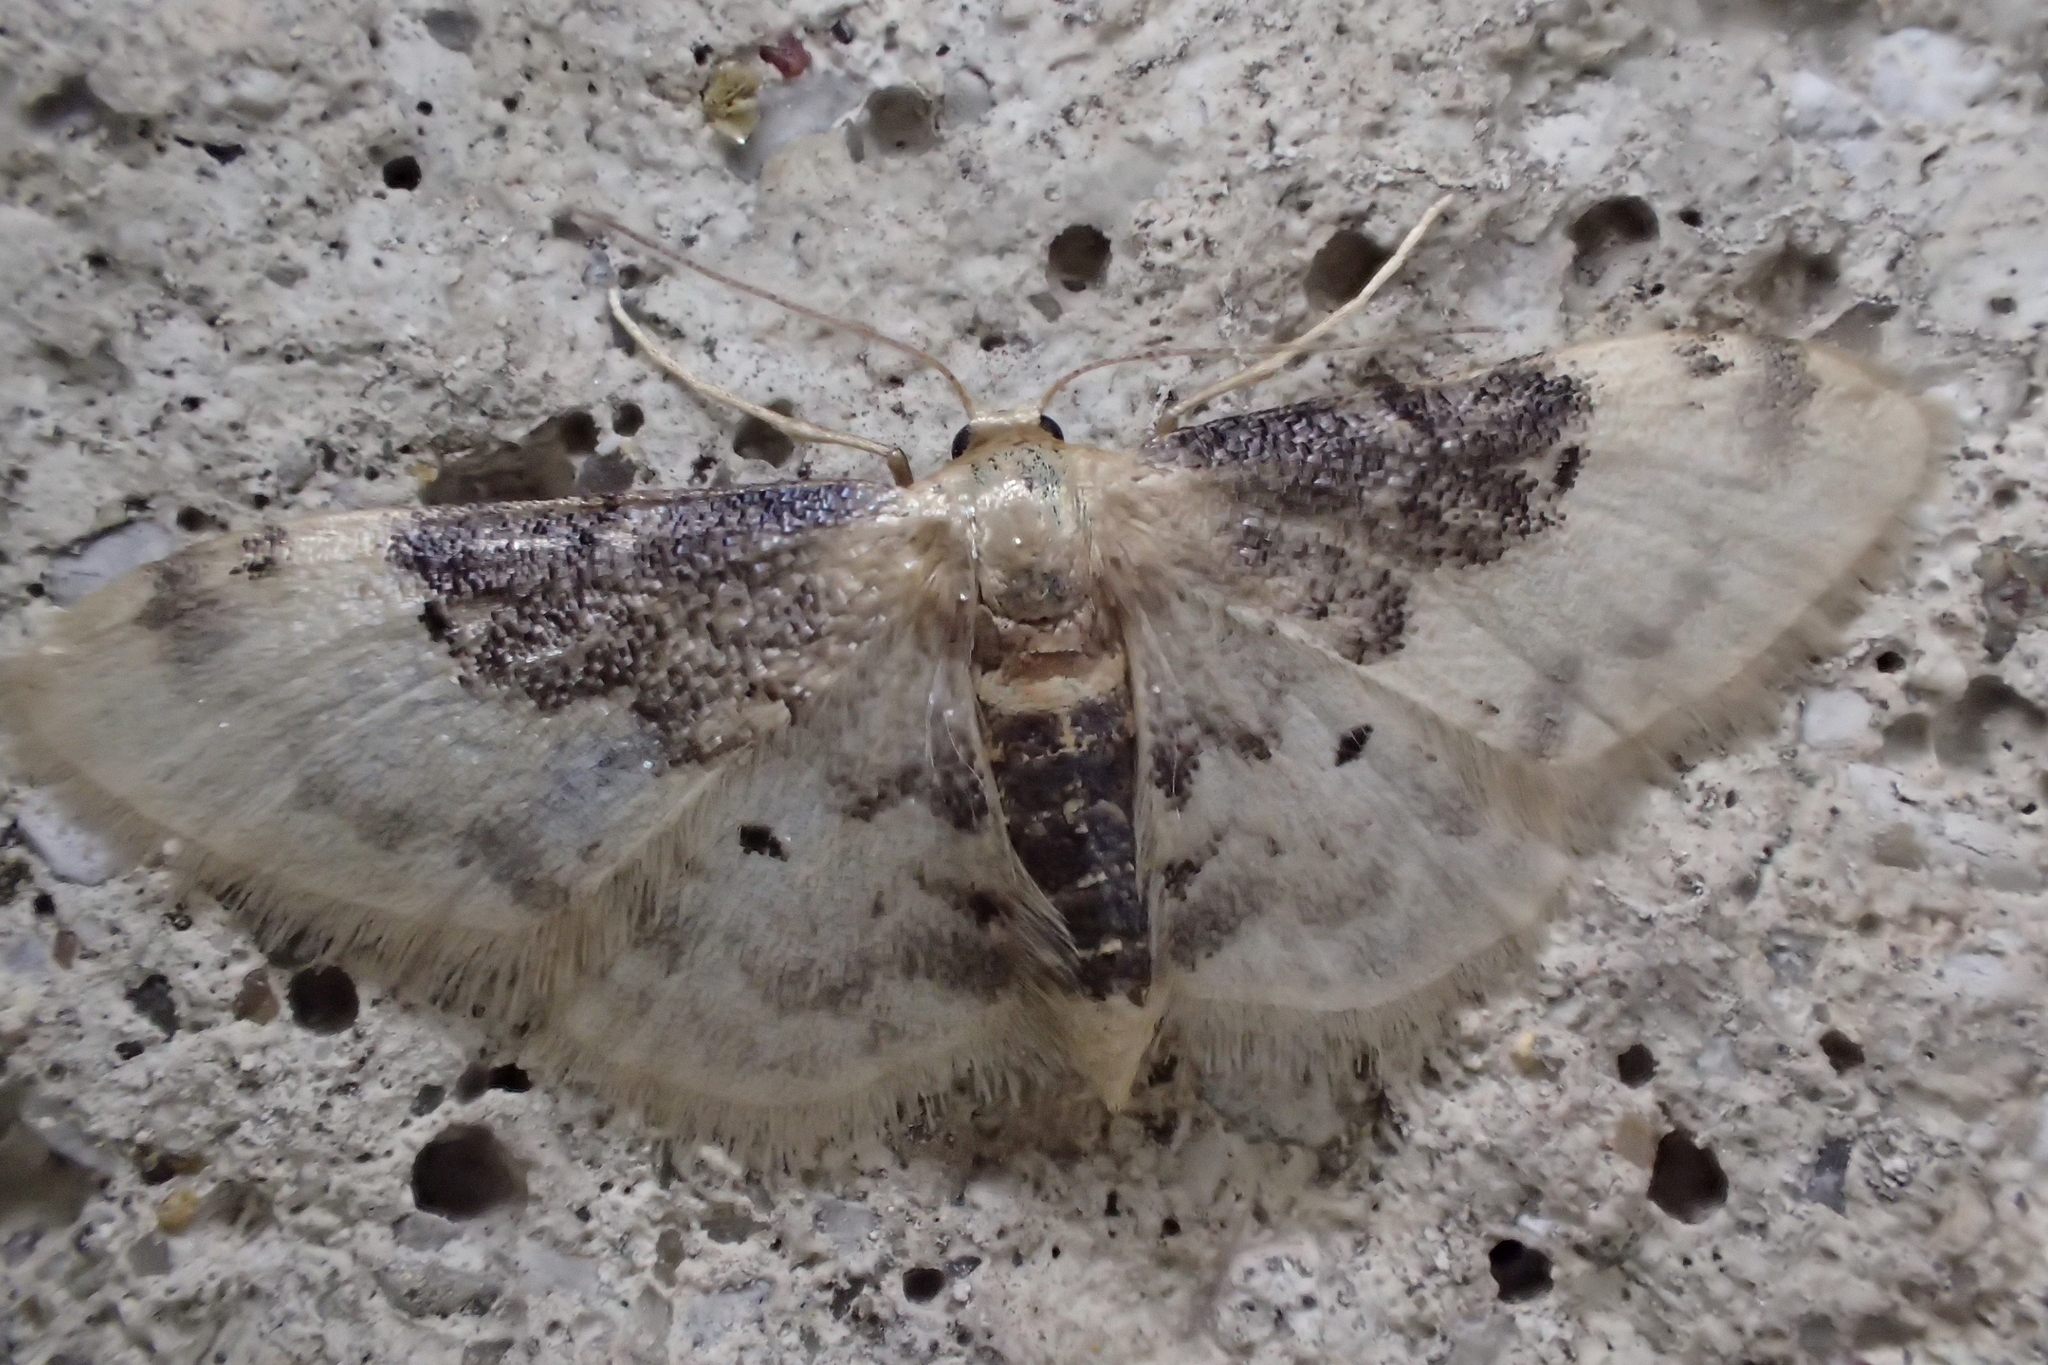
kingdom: Animalia
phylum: Arthropoda
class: Insecta
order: Lepidoptera
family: Geometridae
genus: Idaea
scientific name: Idaea filicata
